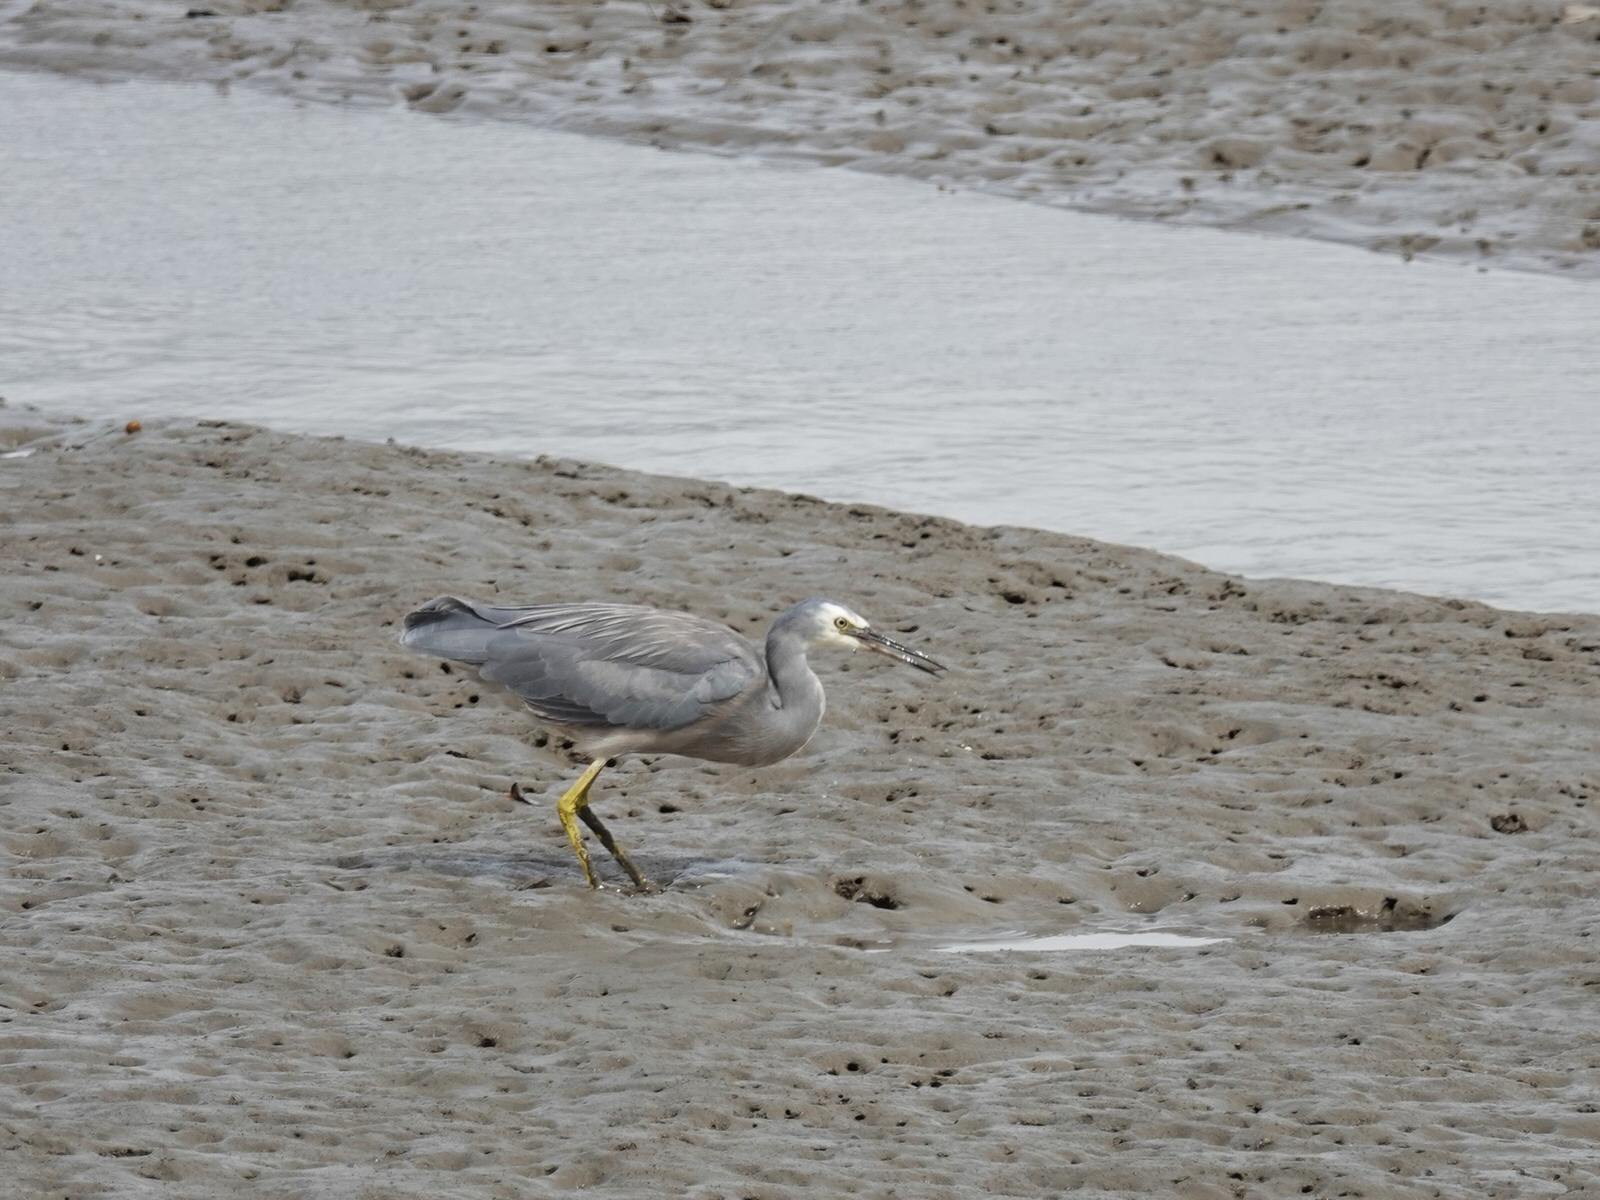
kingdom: Animalia
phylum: Chordata
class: Aves
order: Pelecaniformes
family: Ardeidae
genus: Egretta
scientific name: Egretta novaehollandiae
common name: White-faced heron
